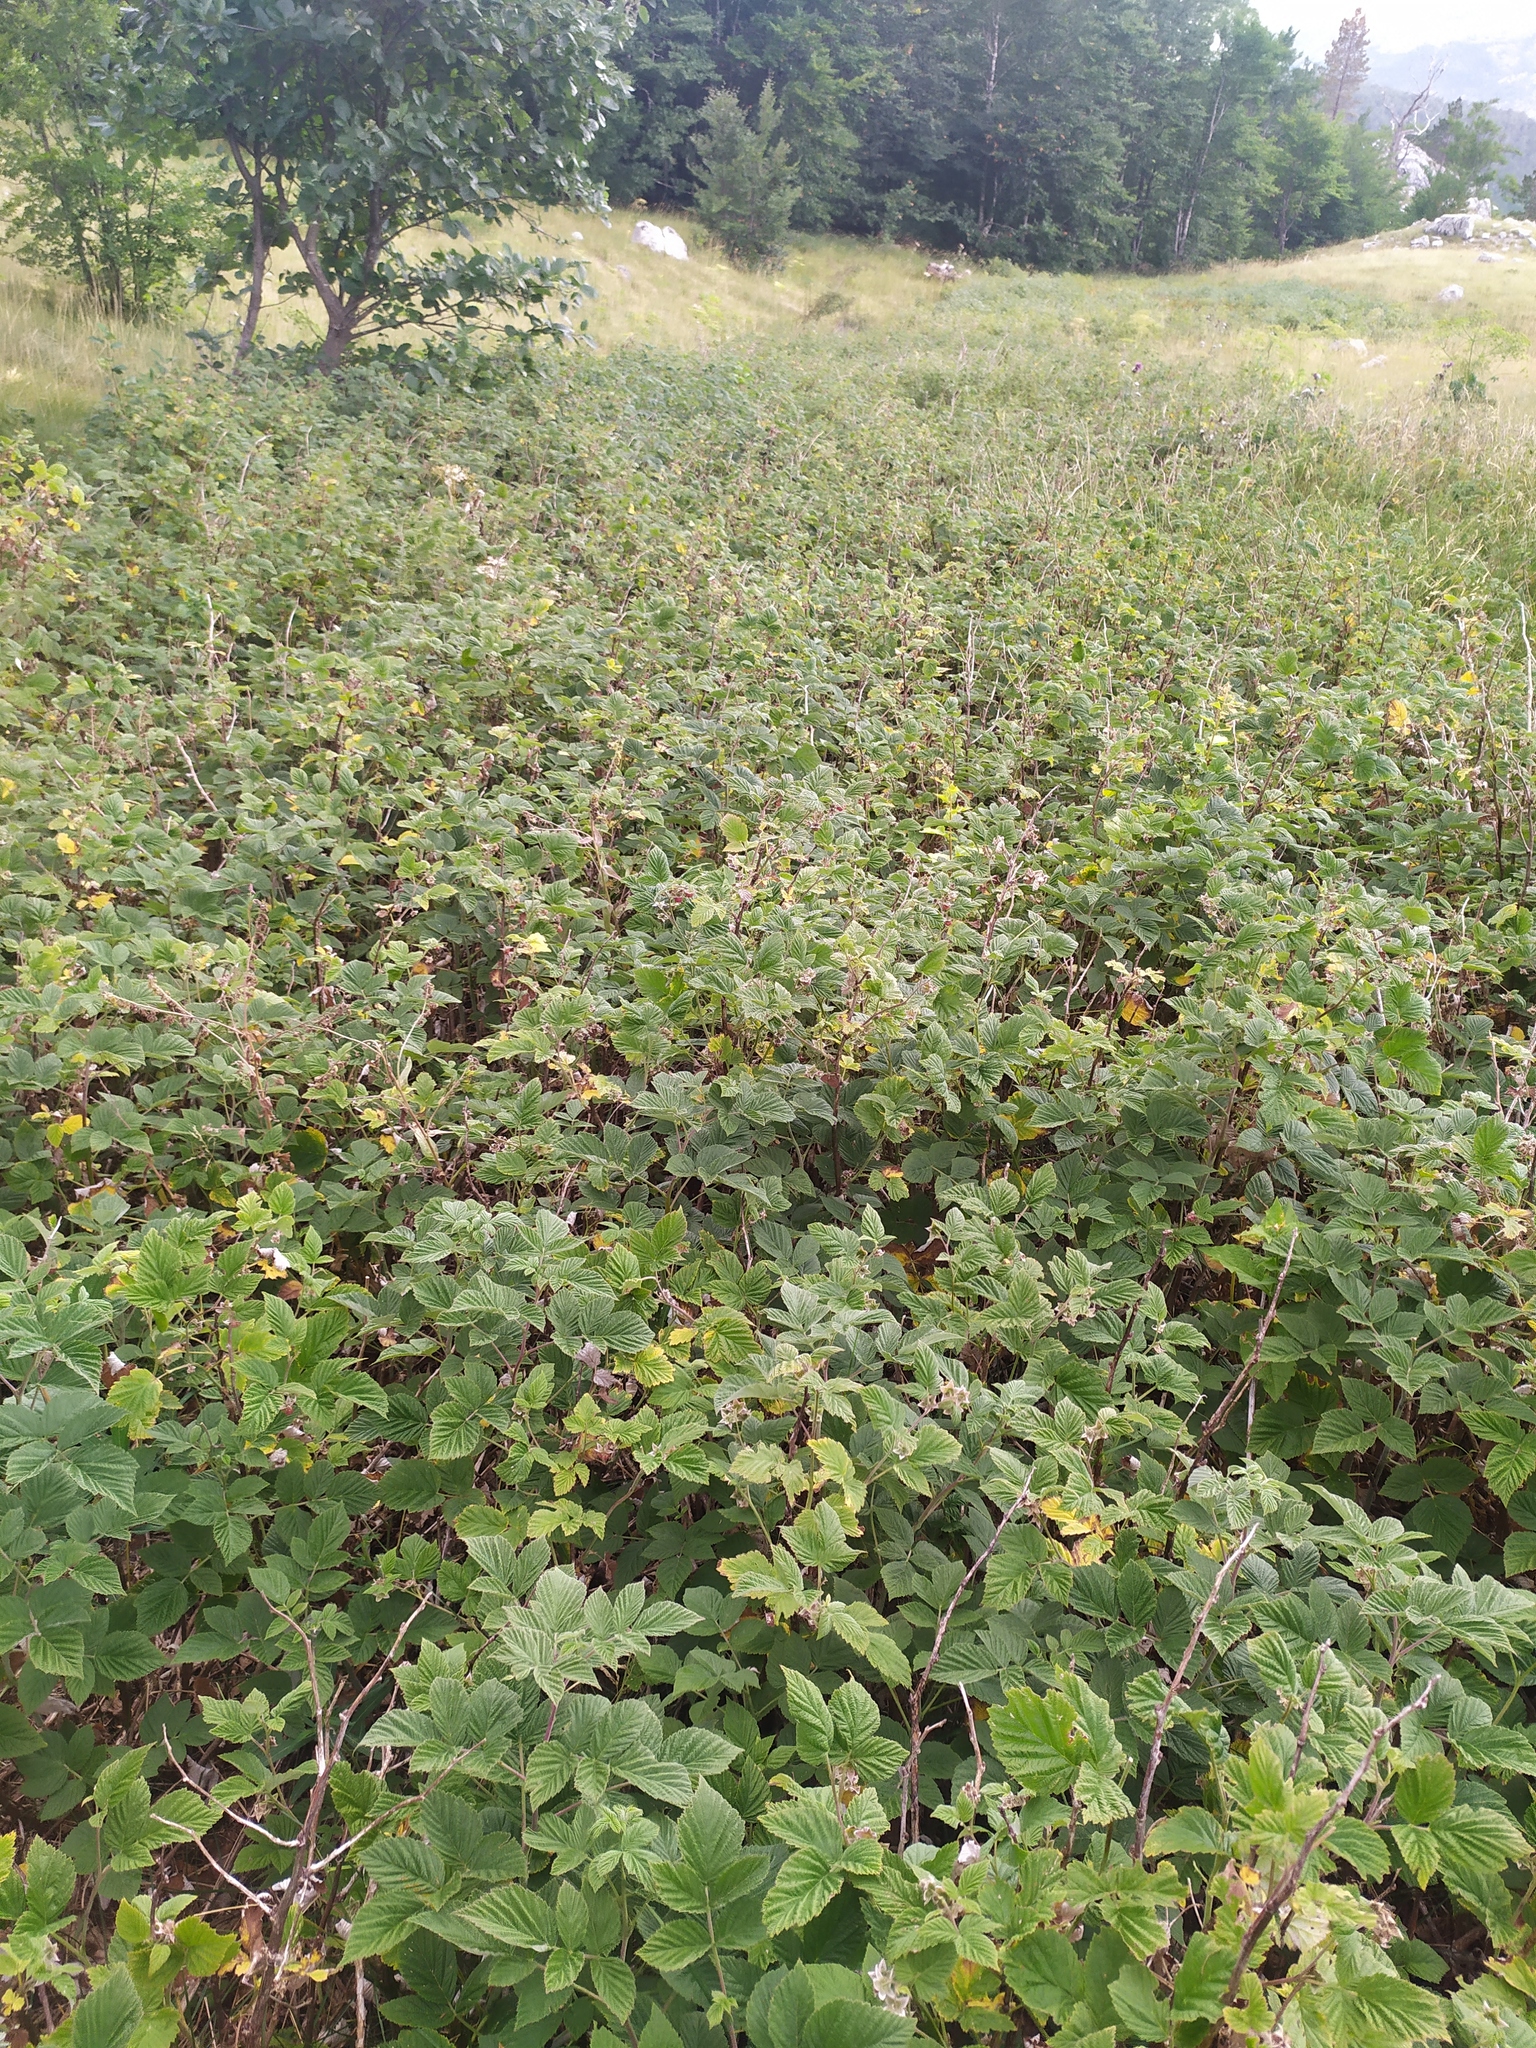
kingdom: Plantae
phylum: Tracheophyta
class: Magnoliopsida
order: Rosales
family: Rosaceae
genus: Rubus
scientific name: Rubus idaeus
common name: Raspberry
